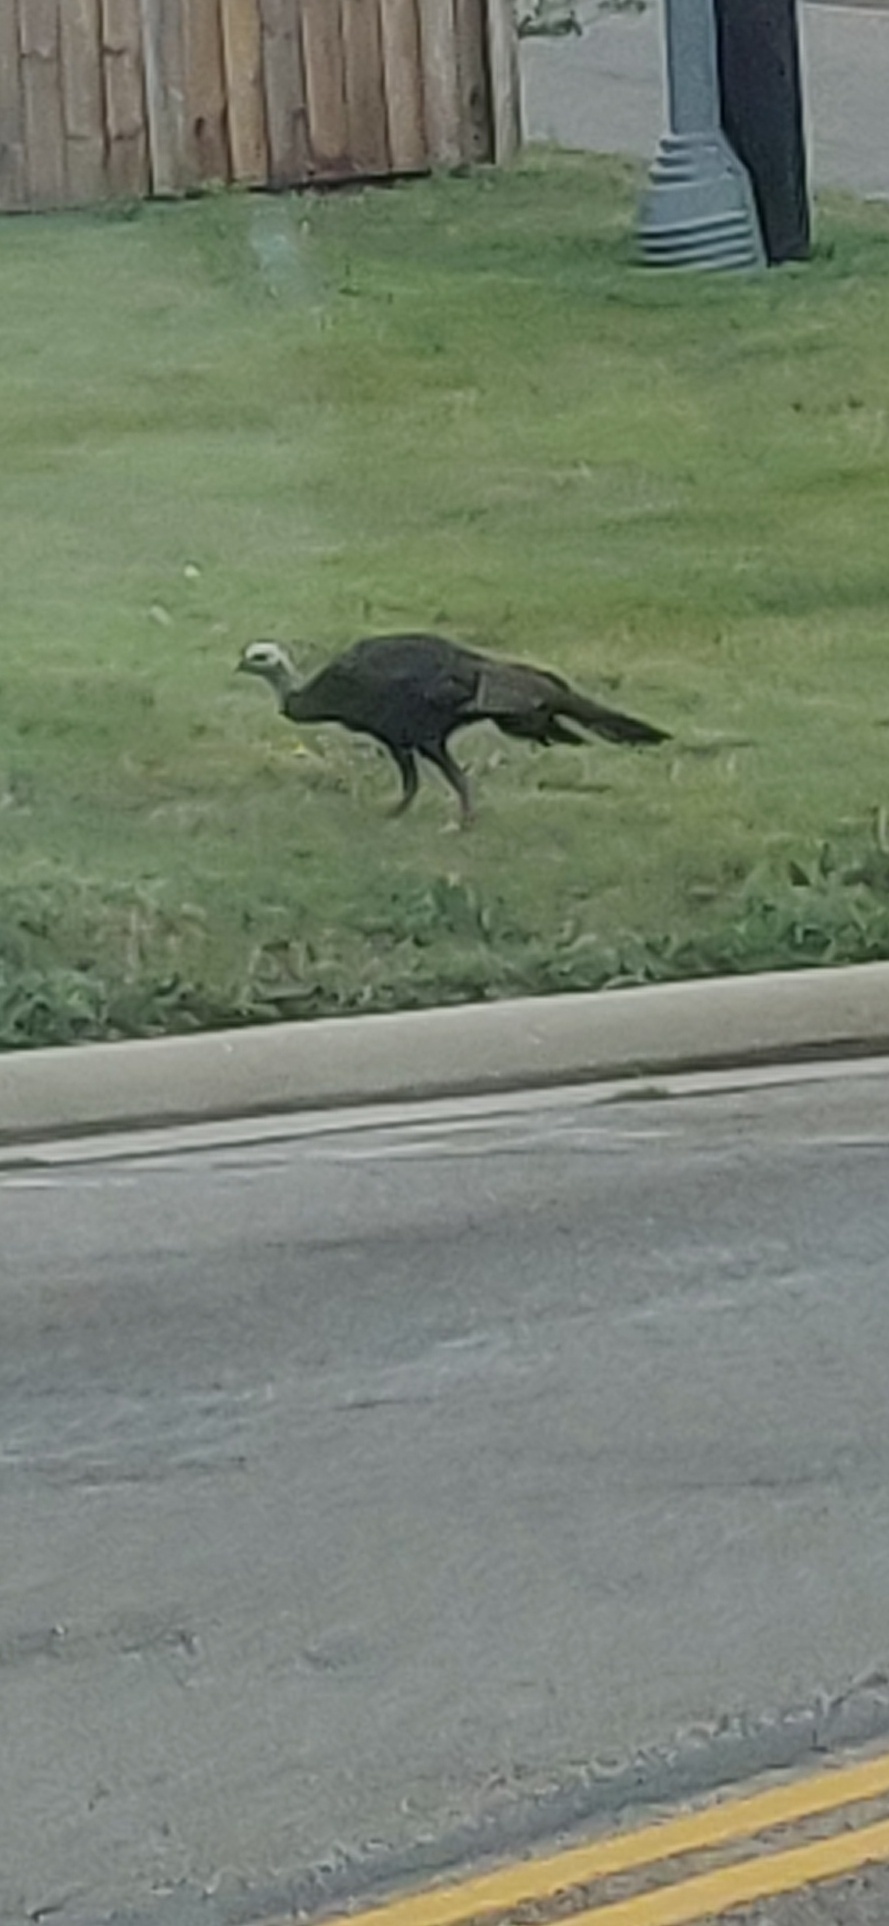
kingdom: Animalia
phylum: Chordata
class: Aves
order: Galliformes
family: Phasianidae
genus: Meleagris
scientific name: Meleagris gallopavo
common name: Wild turkey
